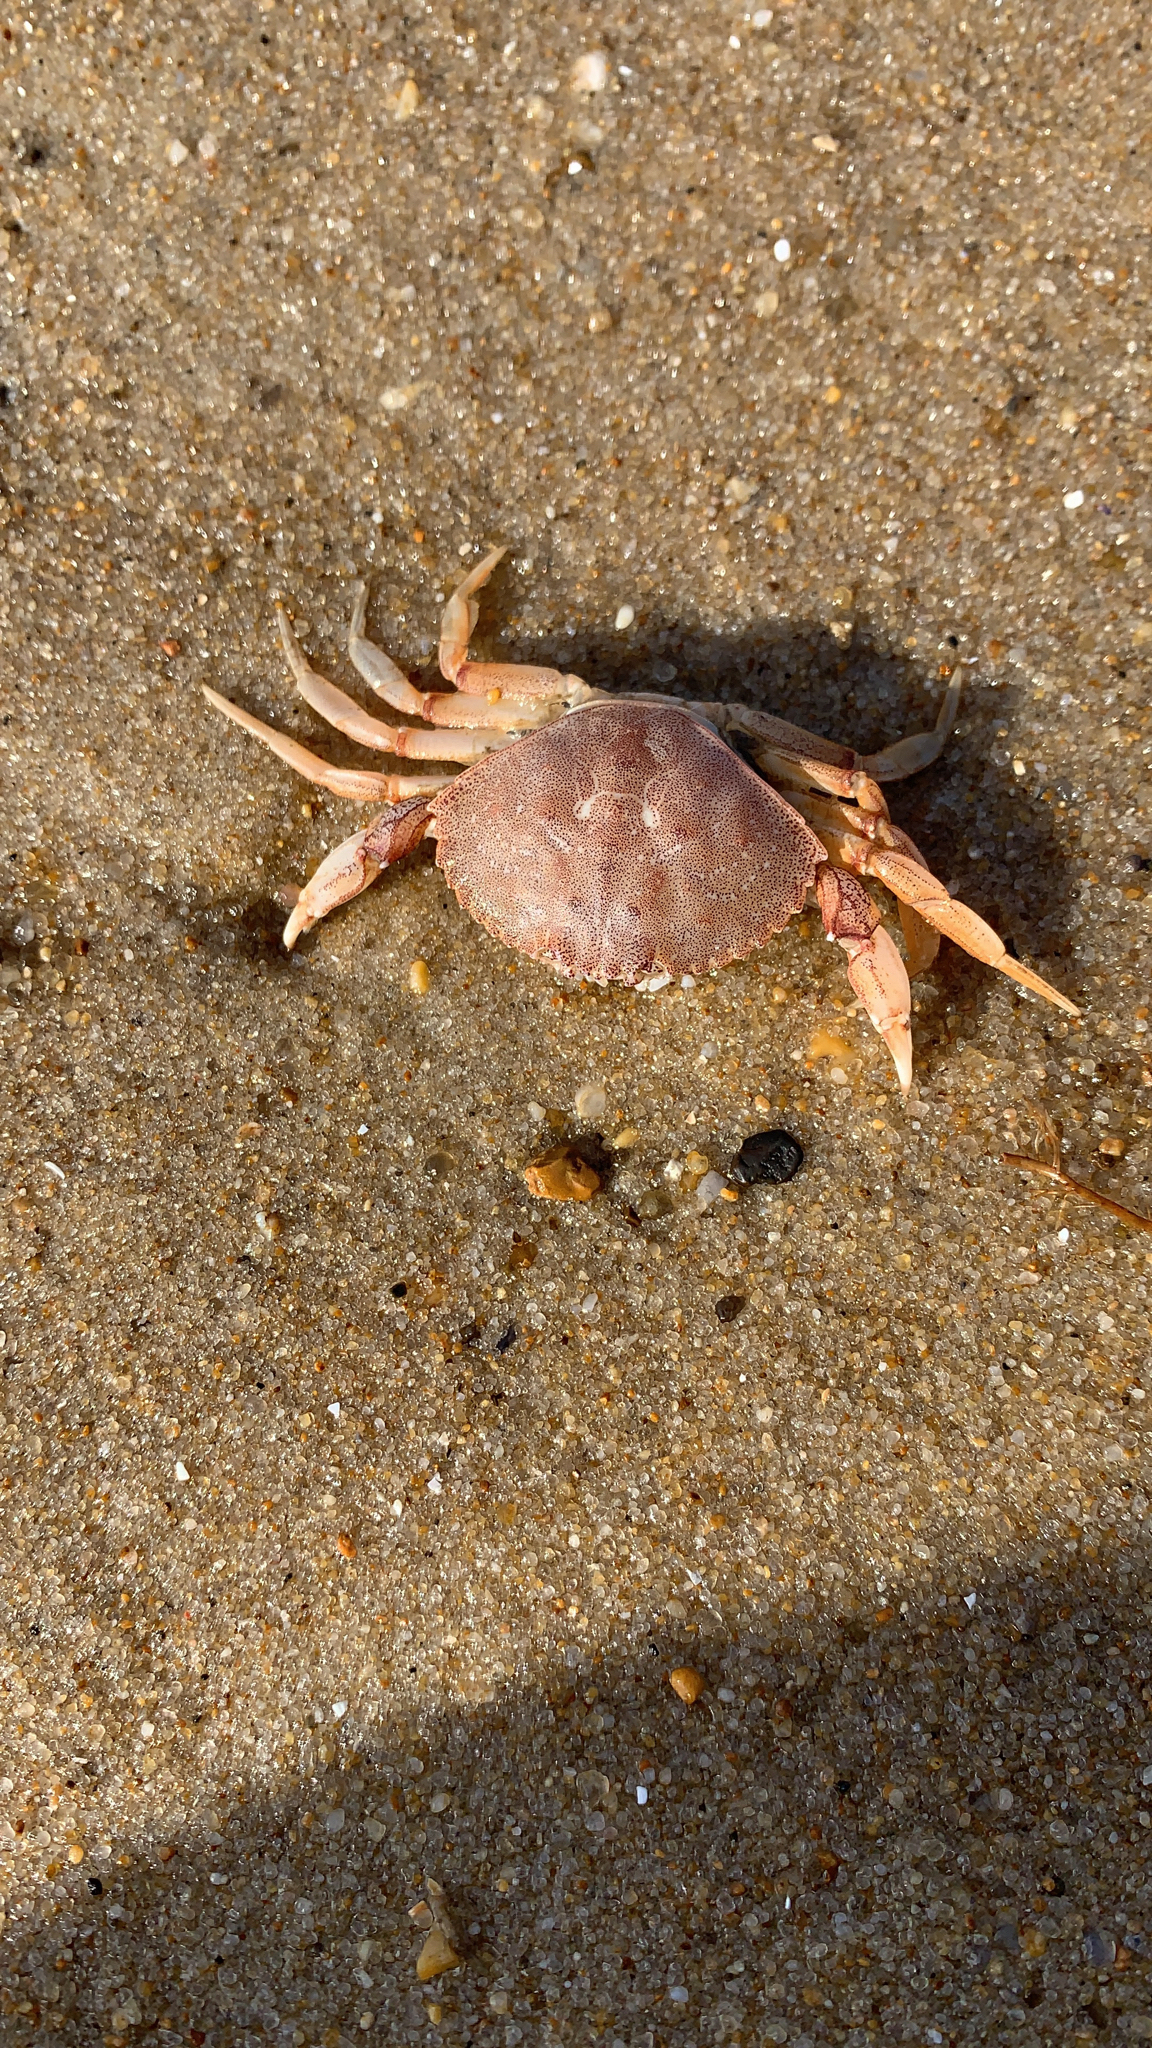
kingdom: Animalia
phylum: Arthropoda
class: Malacostraca
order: Decapoda
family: Cancridae
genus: Cancer
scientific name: Cancer irroratus
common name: Atlantic rock crab
